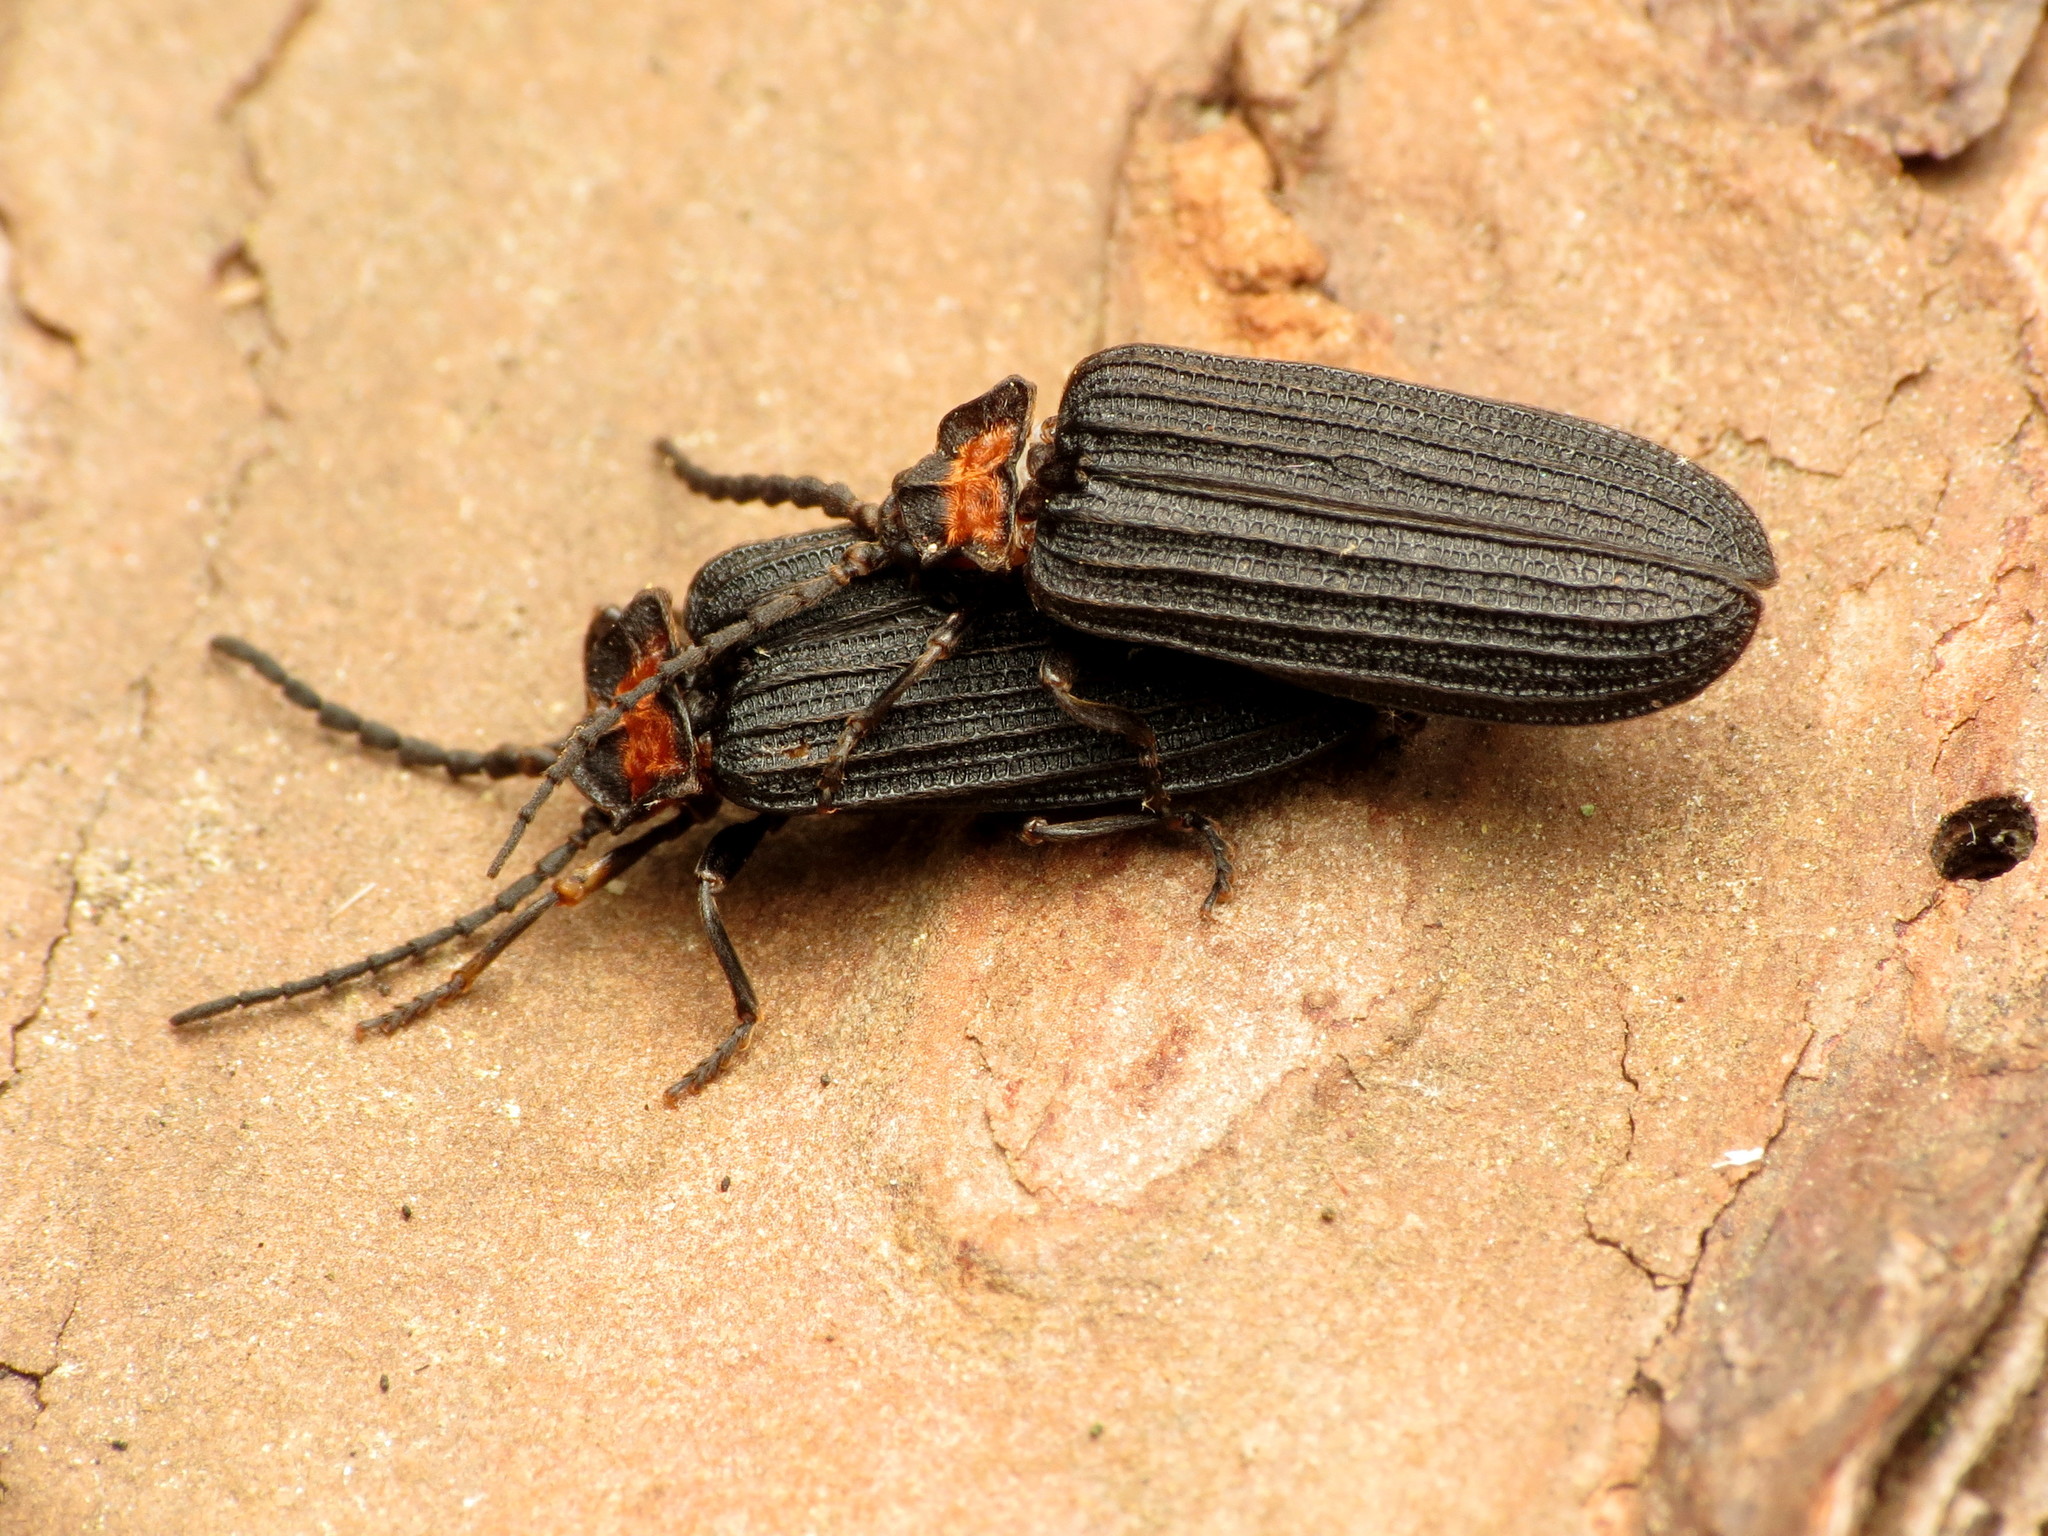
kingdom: Animalia
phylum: Arthropoda
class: Insecta
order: Coleoptera
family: Lycidae
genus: Lopheros
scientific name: Lopheros fraternus
